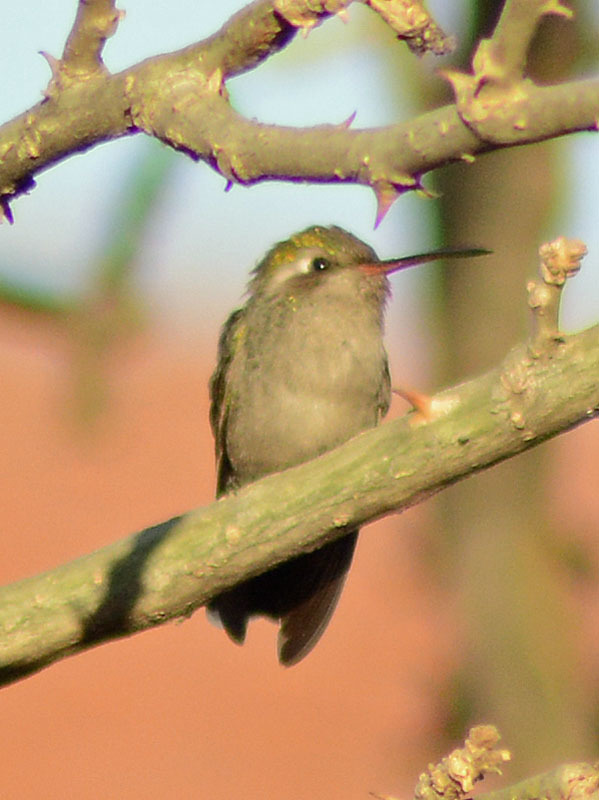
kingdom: Animalia
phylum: Chordata
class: Aves
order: Apodiformes
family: Trochilidae
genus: Cynanthus
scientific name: Cynanthus latirostris
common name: Broad-billed hummingbird
